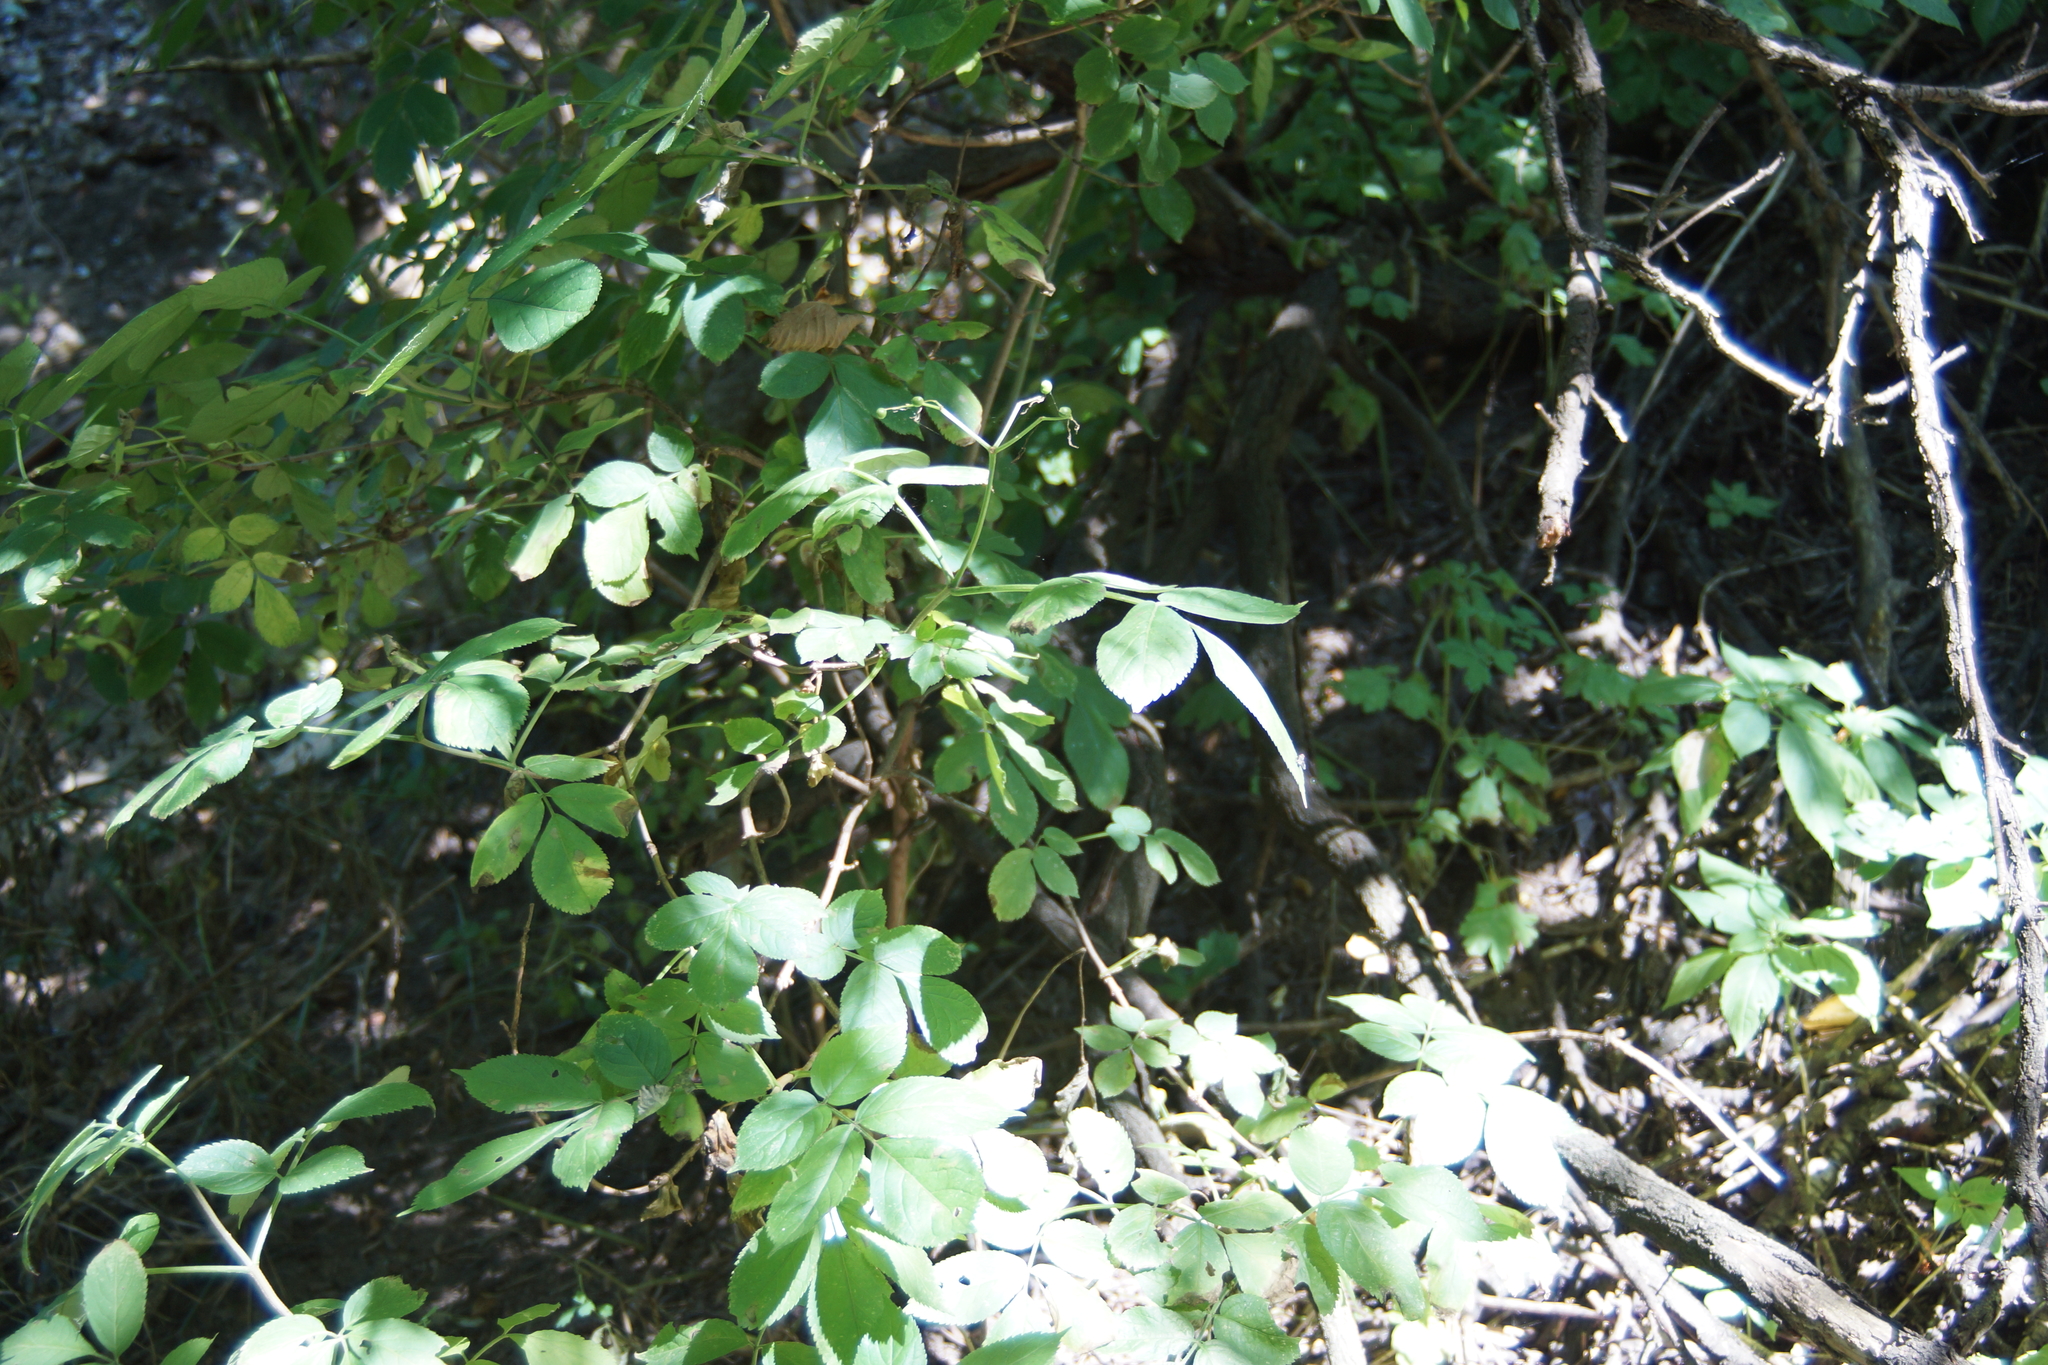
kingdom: Plantae
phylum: Tracheophyta
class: Magnoliopsida
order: Dipsacales
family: Viburnaceae
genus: Sambucus
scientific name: Sambucus nigra
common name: Elder
